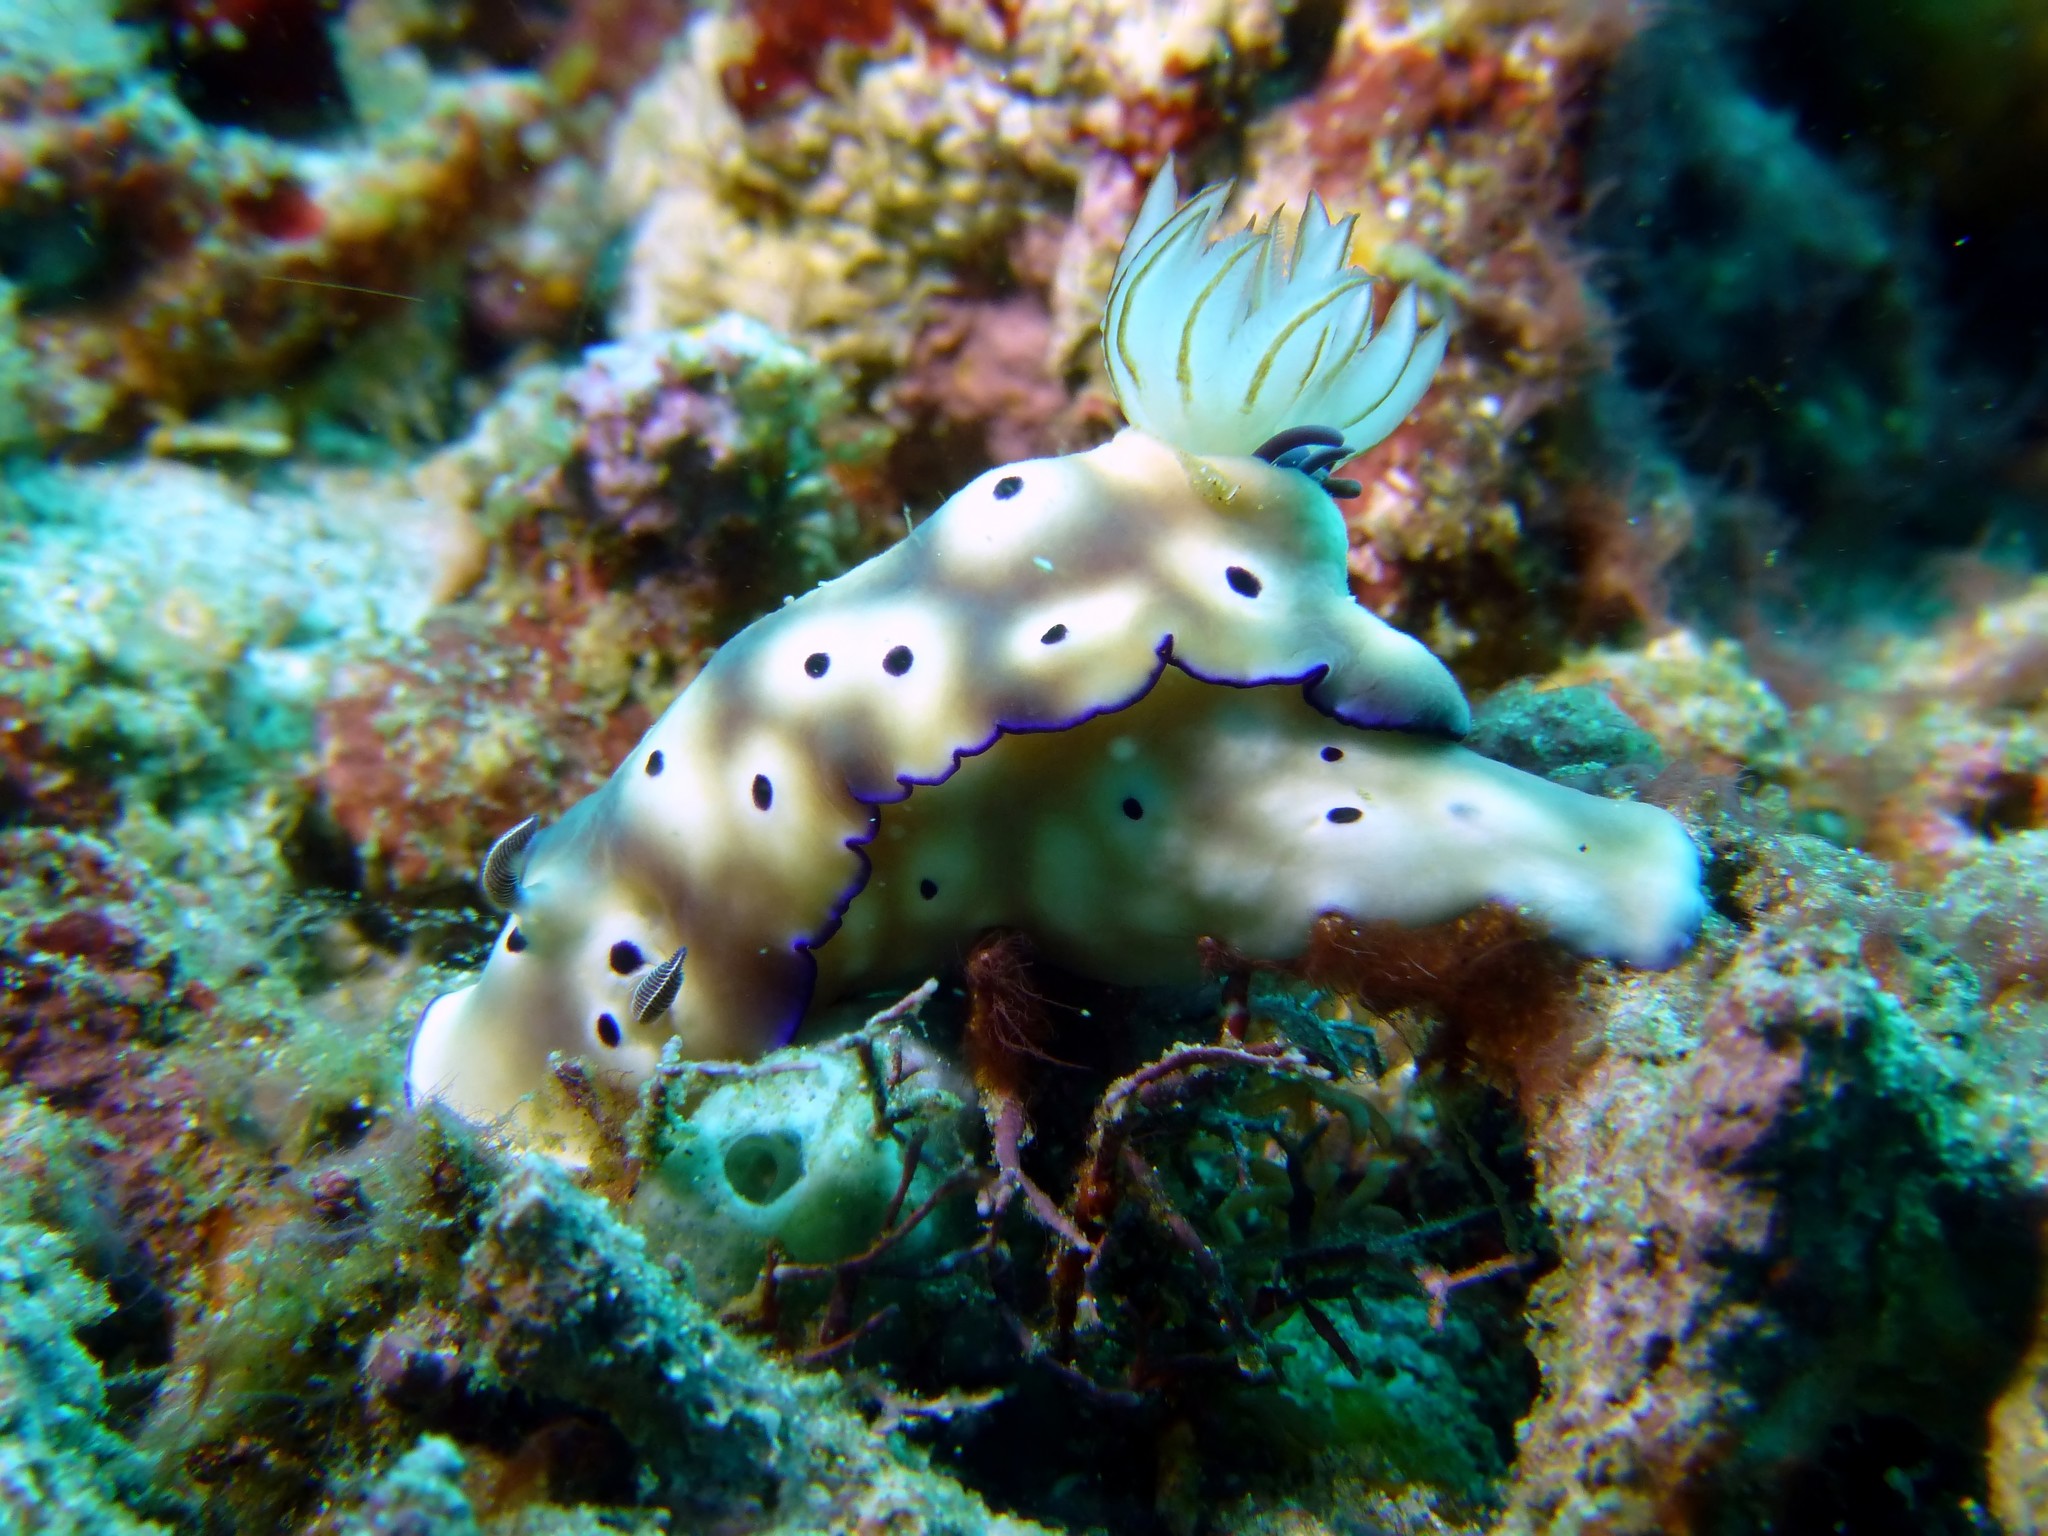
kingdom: Animalia
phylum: Mollusca
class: Gastropoda
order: Nudibranchia
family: Chromodorididae
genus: Hypselodoris
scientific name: Hypselodoris tryoni
